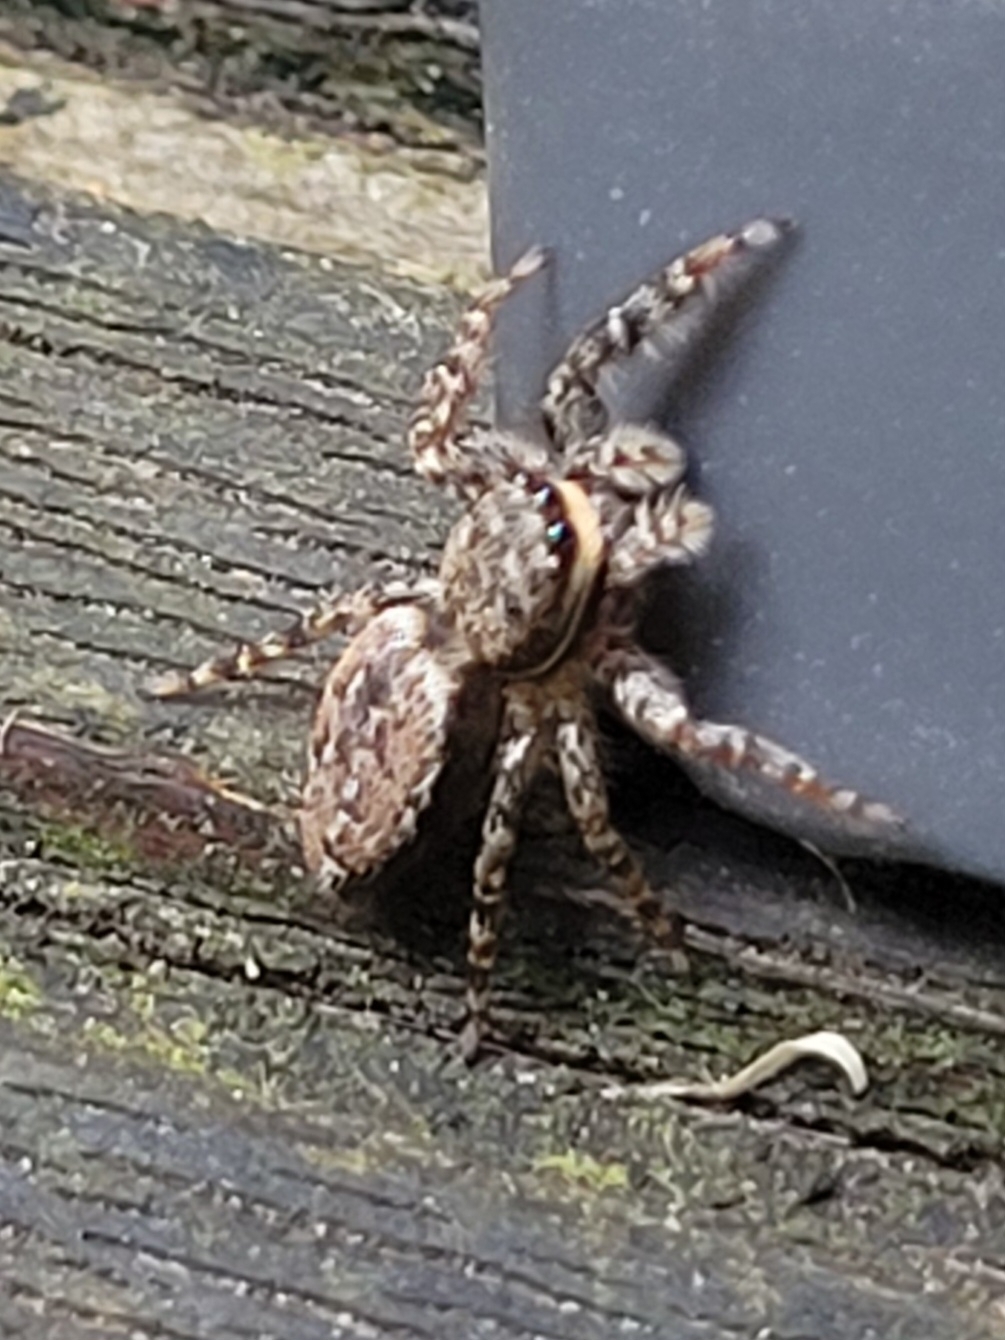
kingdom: Animalia
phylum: Arthropoda
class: Arachnida
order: Araneae
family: Salticidae
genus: Marpissa
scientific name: Marpissa muscosa
